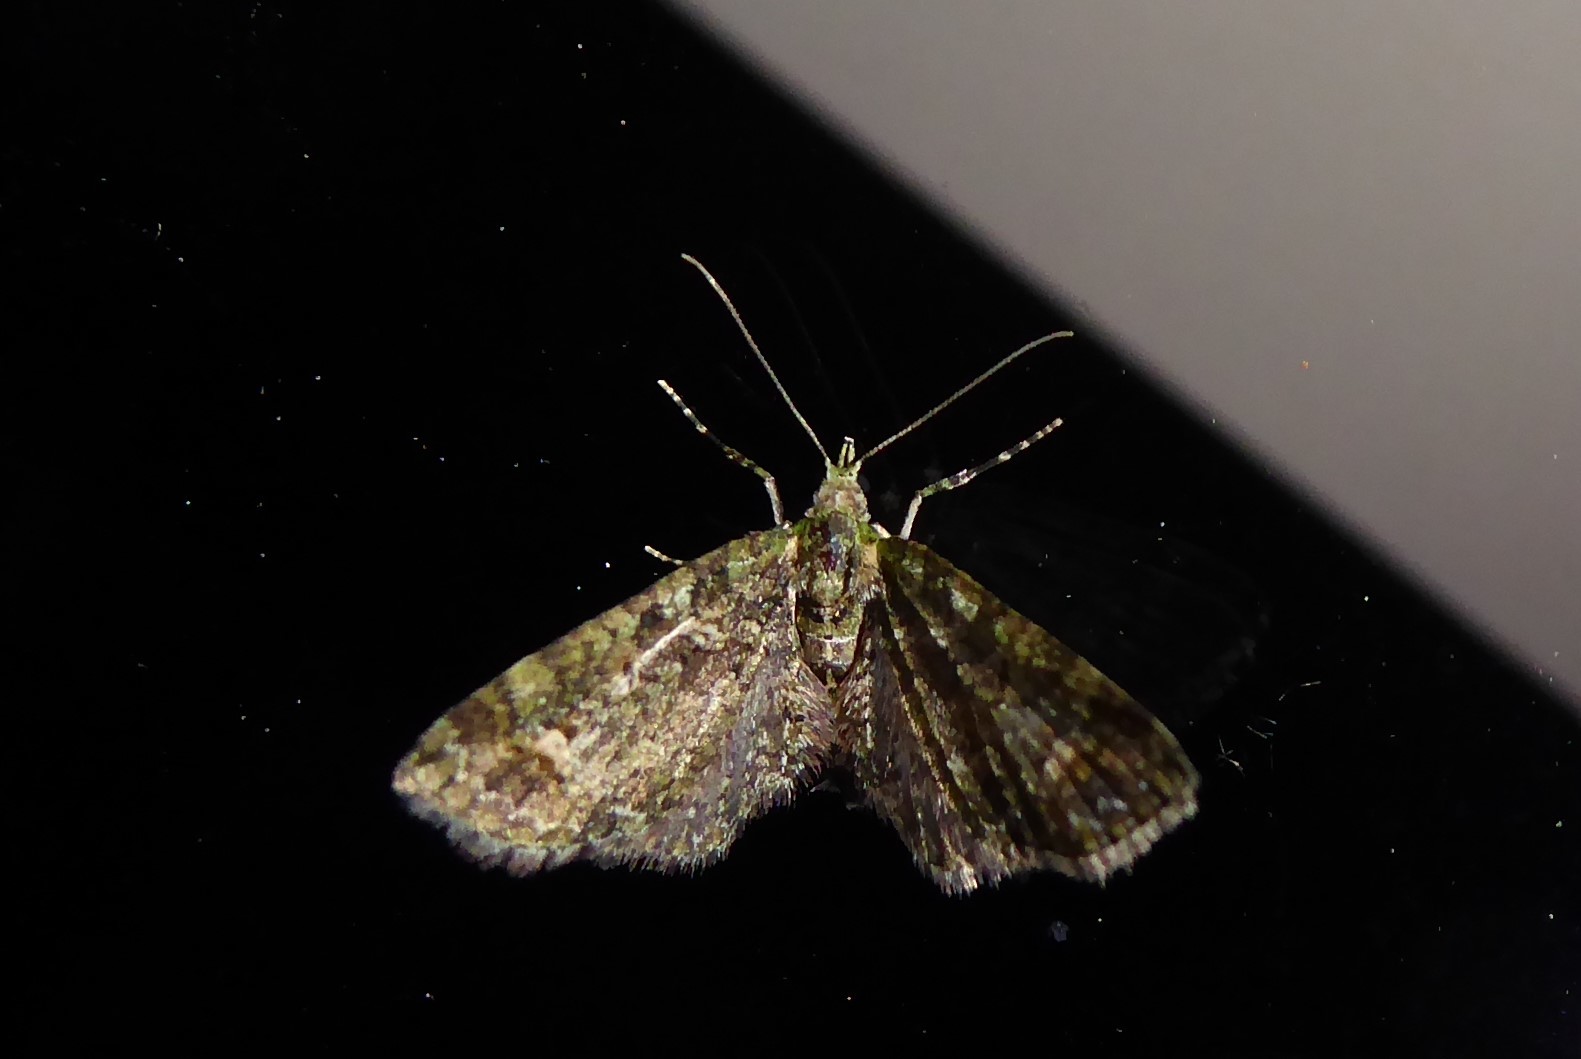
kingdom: Animalia
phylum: Arthropoda
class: Insecta
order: Lepidoptera
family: Geometridae
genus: Idaea
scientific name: Idaea mutanda
